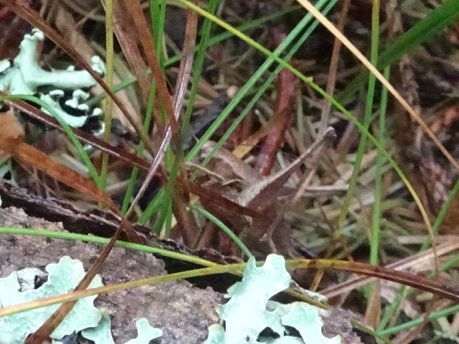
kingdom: Animalia
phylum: Arthropoda
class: Insecta
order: Orthoptera
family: Tettigoniidae
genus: Pholidoptera
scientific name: Pholidoptera griseoaptera
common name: Dark bush-cricket
